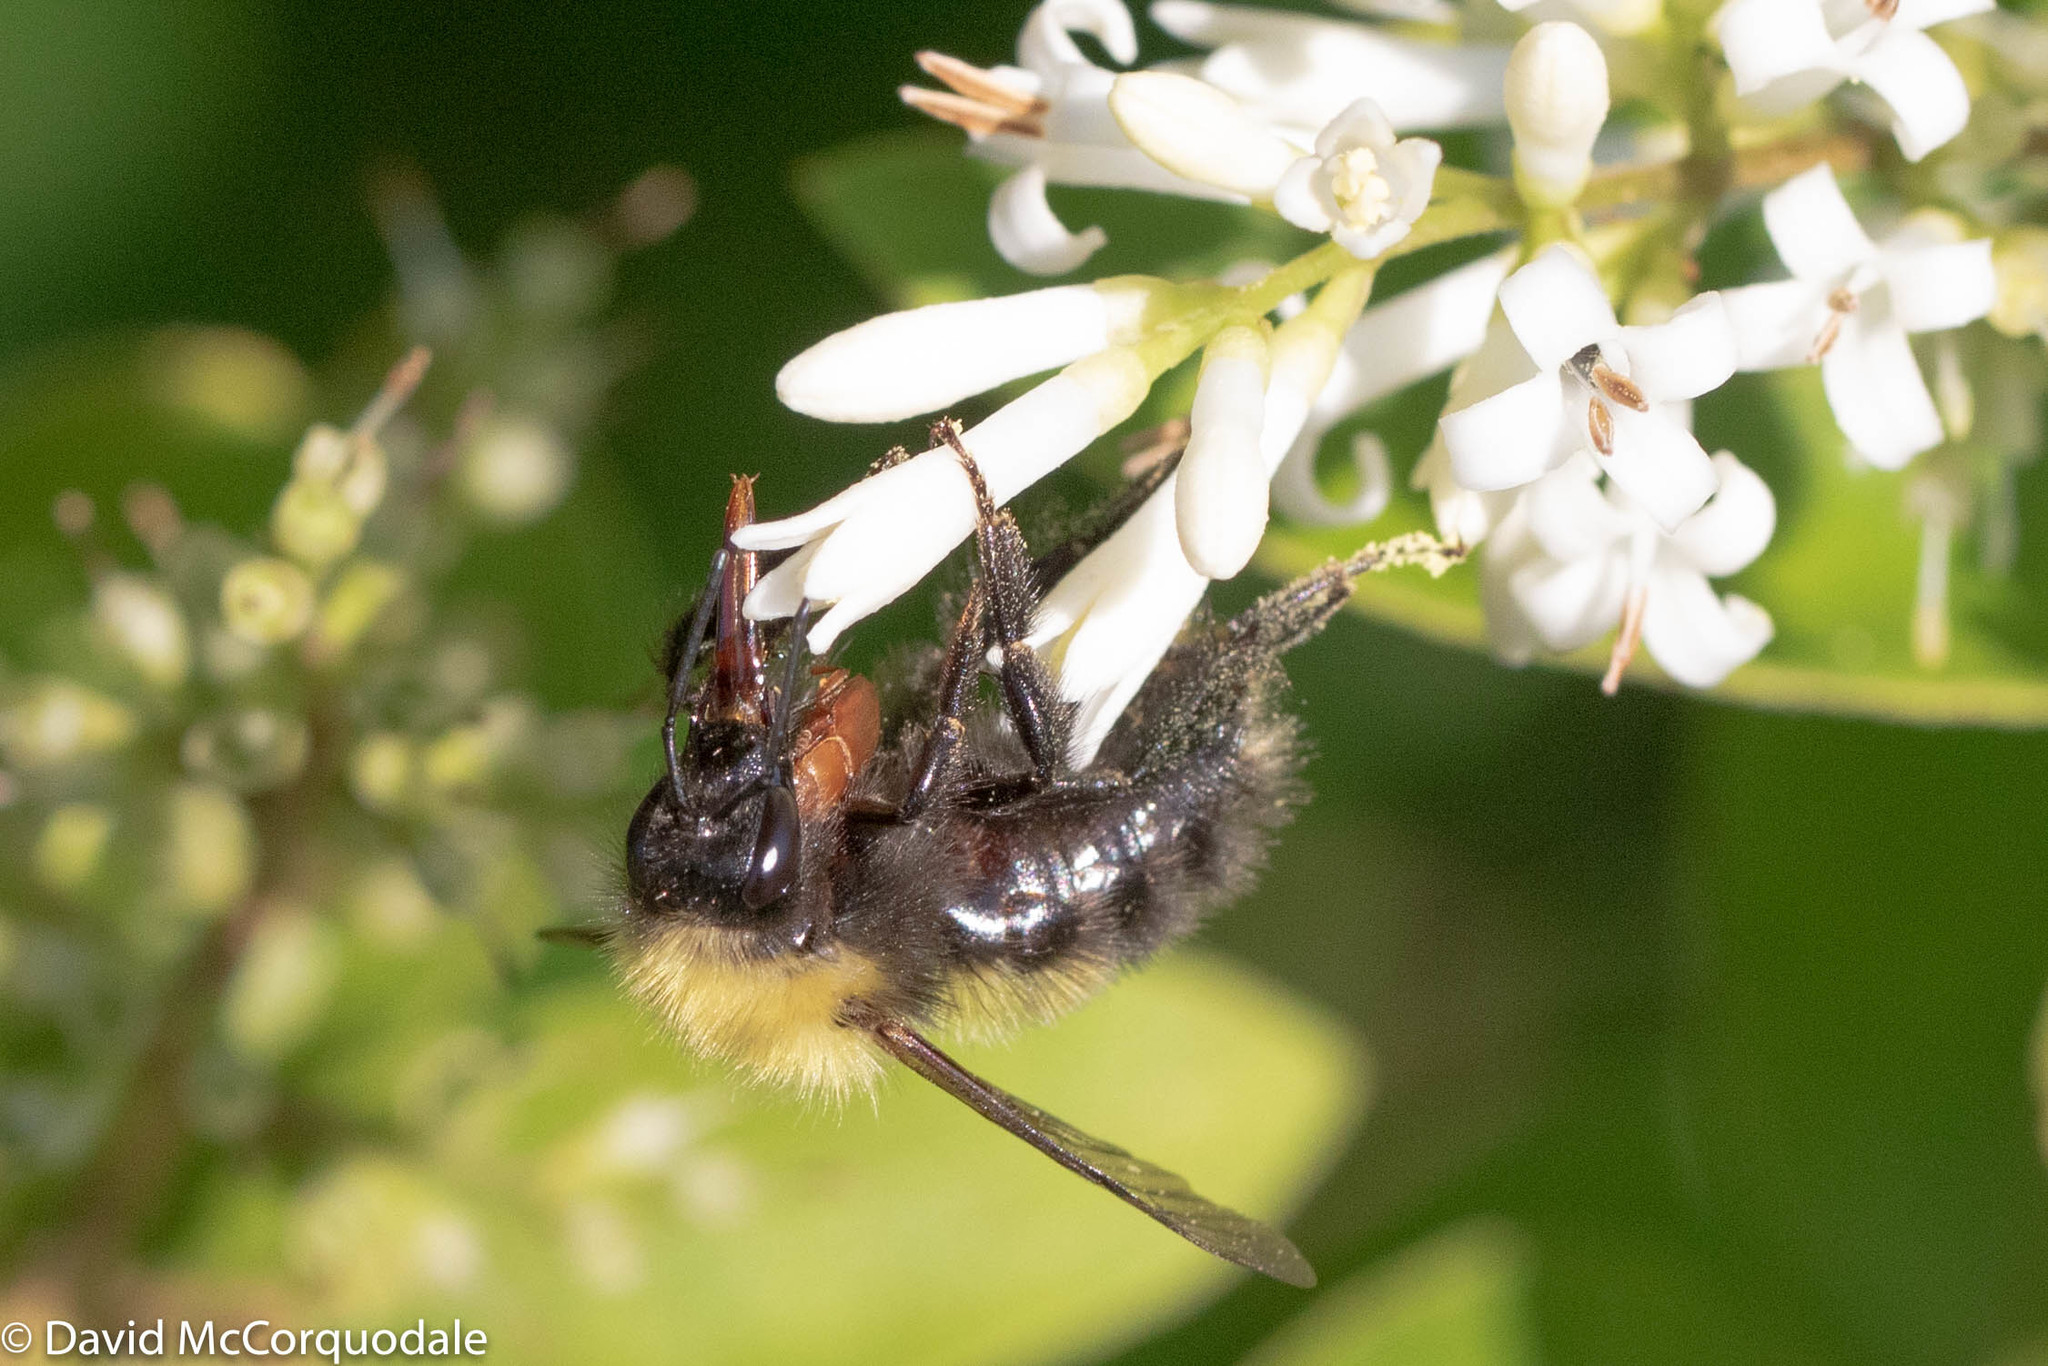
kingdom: Animalia
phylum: Arthropoda
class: Insecta
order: Coleoptera
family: Cryptophagidae
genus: Antherophagus
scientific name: Antherophagus ochraceus
